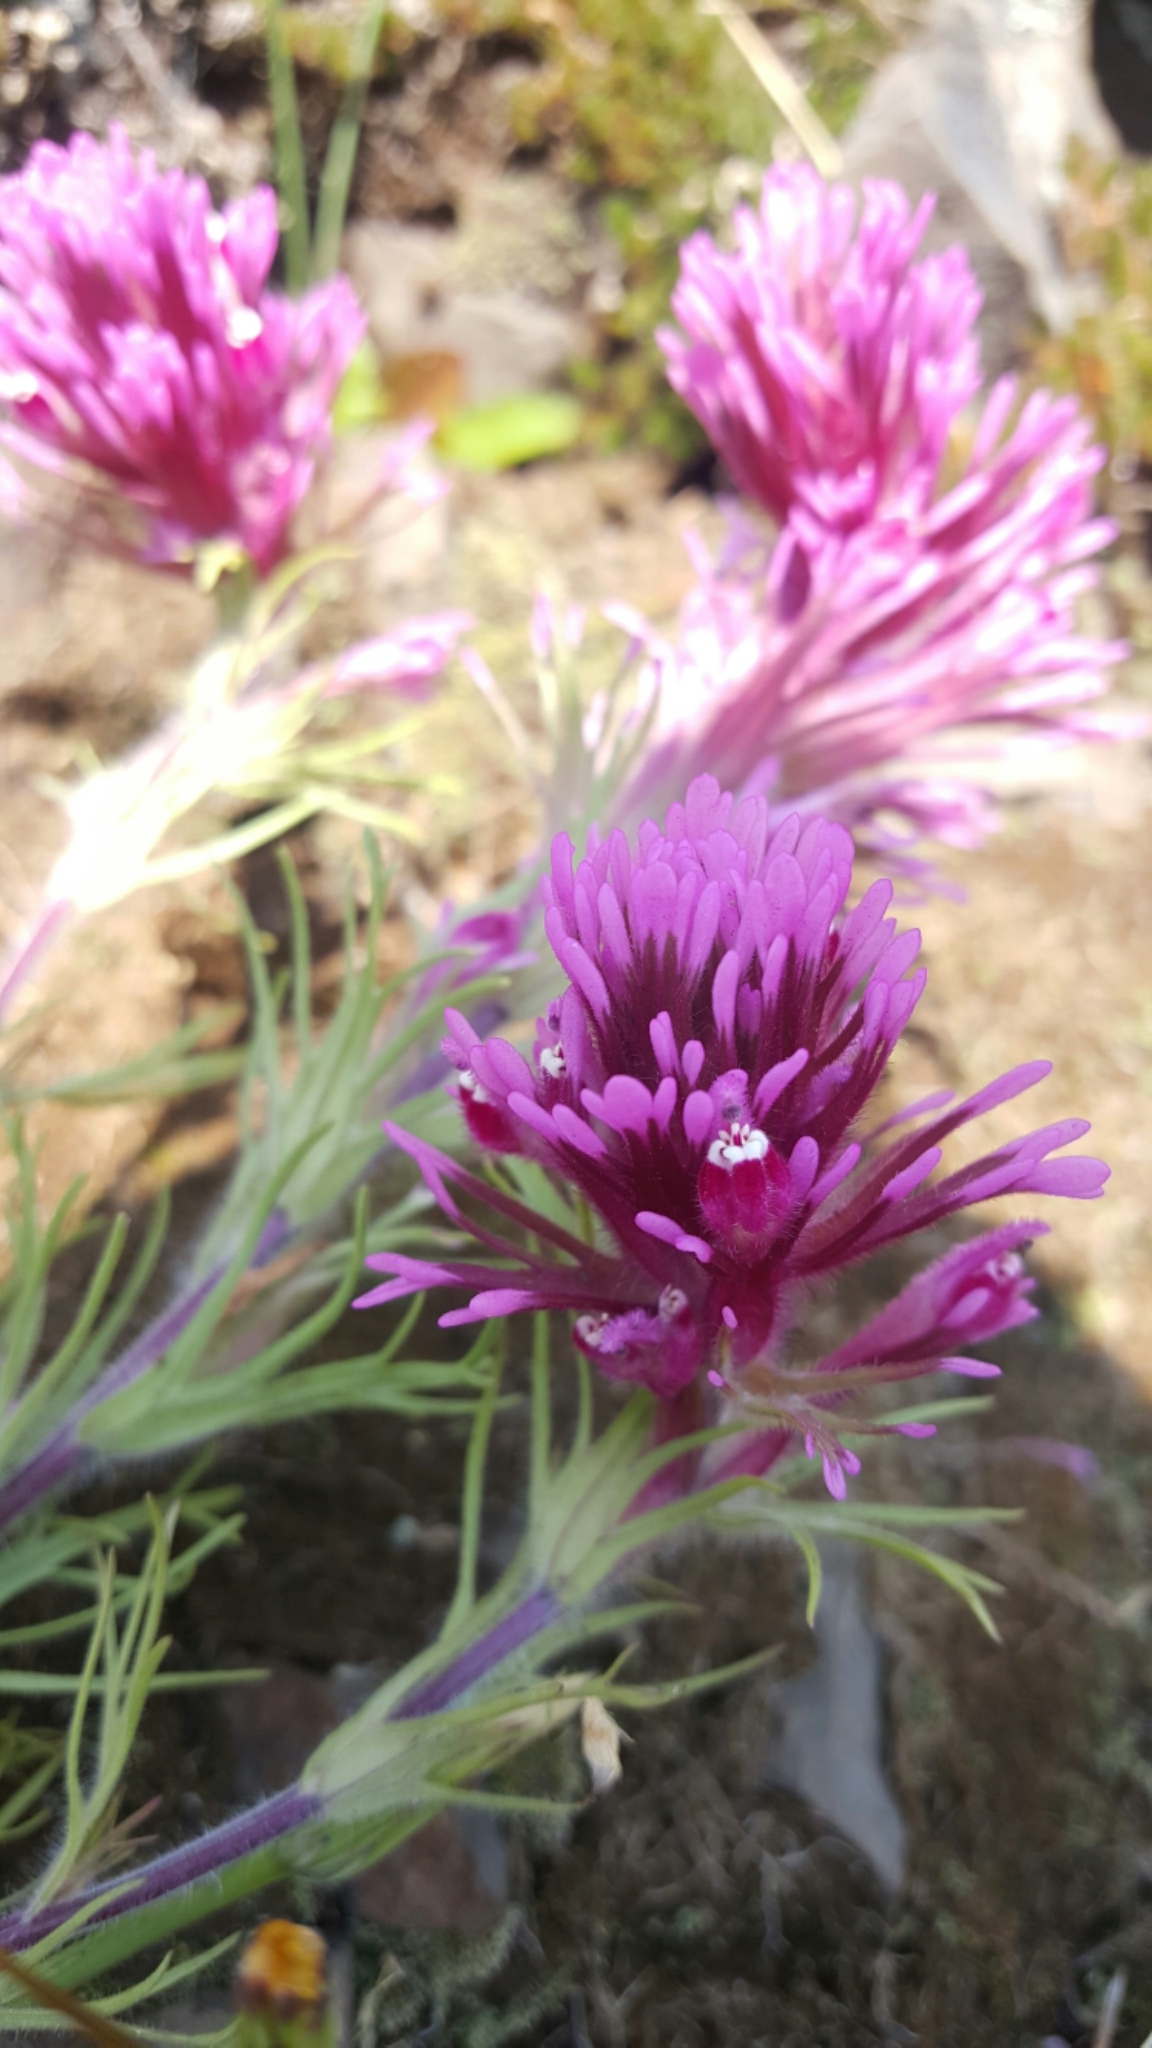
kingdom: Plantae
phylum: Tracheophyta
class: Magnoliopsida
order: Lamiales
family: Orobanchaceae
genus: Castilleja
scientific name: Castilleja exserta
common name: Purple owl-clover
